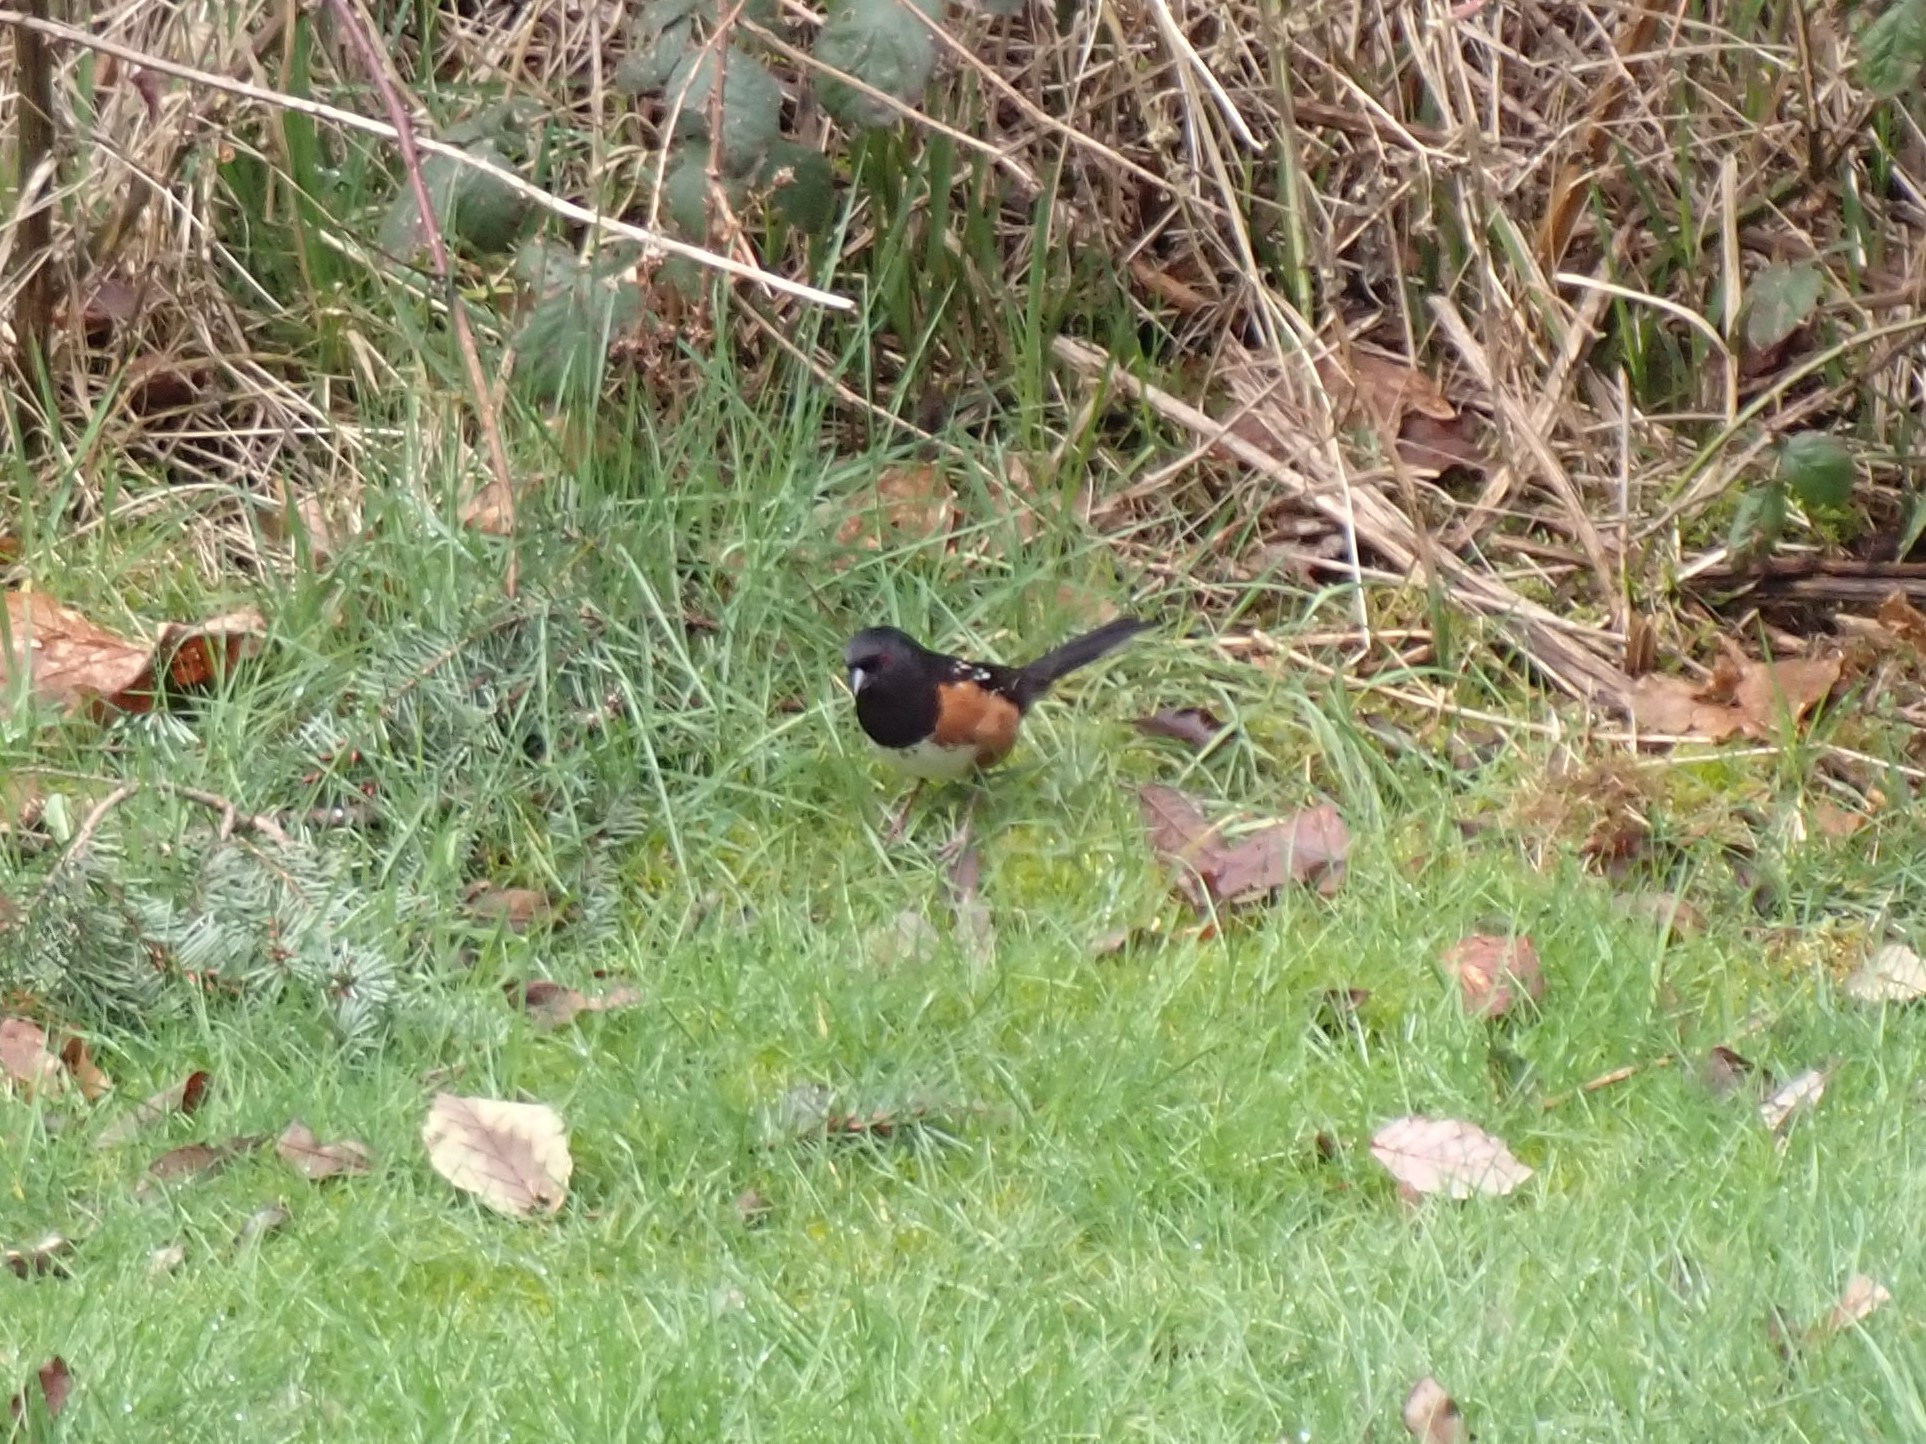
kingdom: Animalia
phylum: Chordata
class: Aves
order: Passeriformes
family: Passerellidae
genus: Pipilo
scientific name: Pipilo maculatus
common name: Spotted towhee
